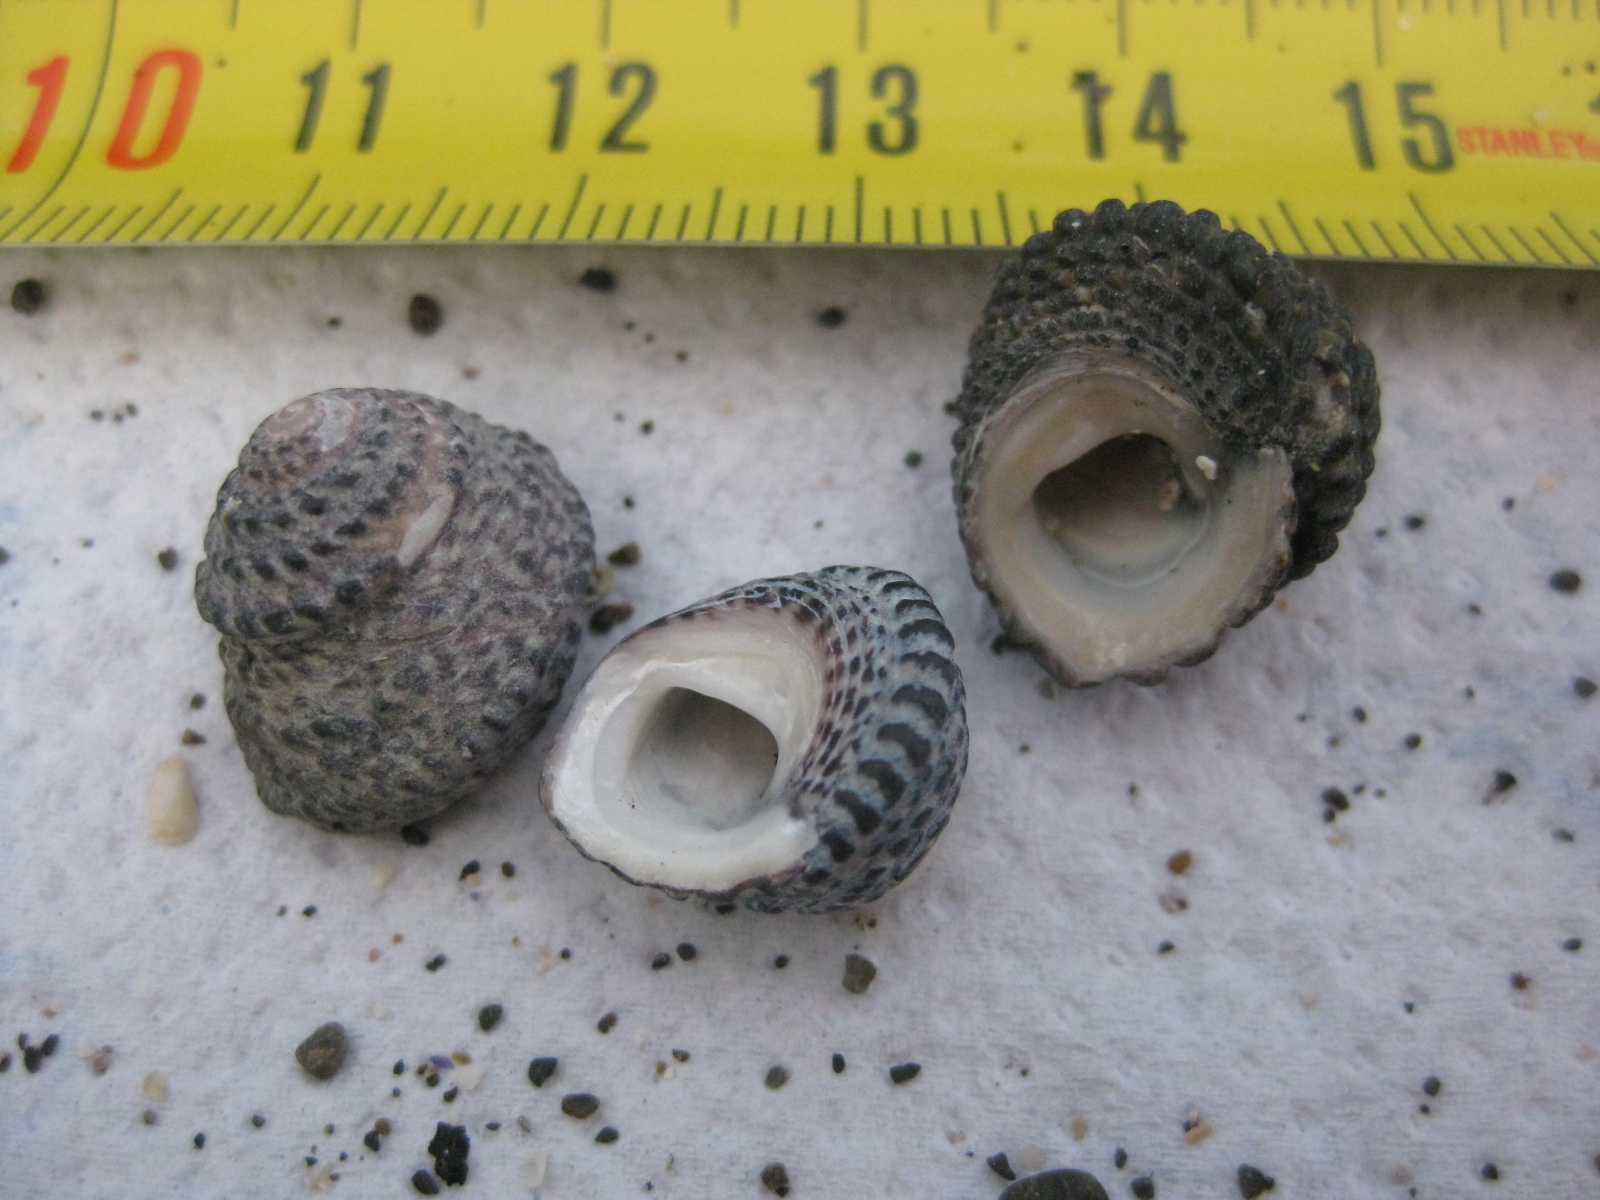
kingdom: Animalia
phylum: Mollusca
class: Gastropoda
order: Trochida
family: Trochidae
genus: Diloma
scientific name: Diloma bicanaliculatum
